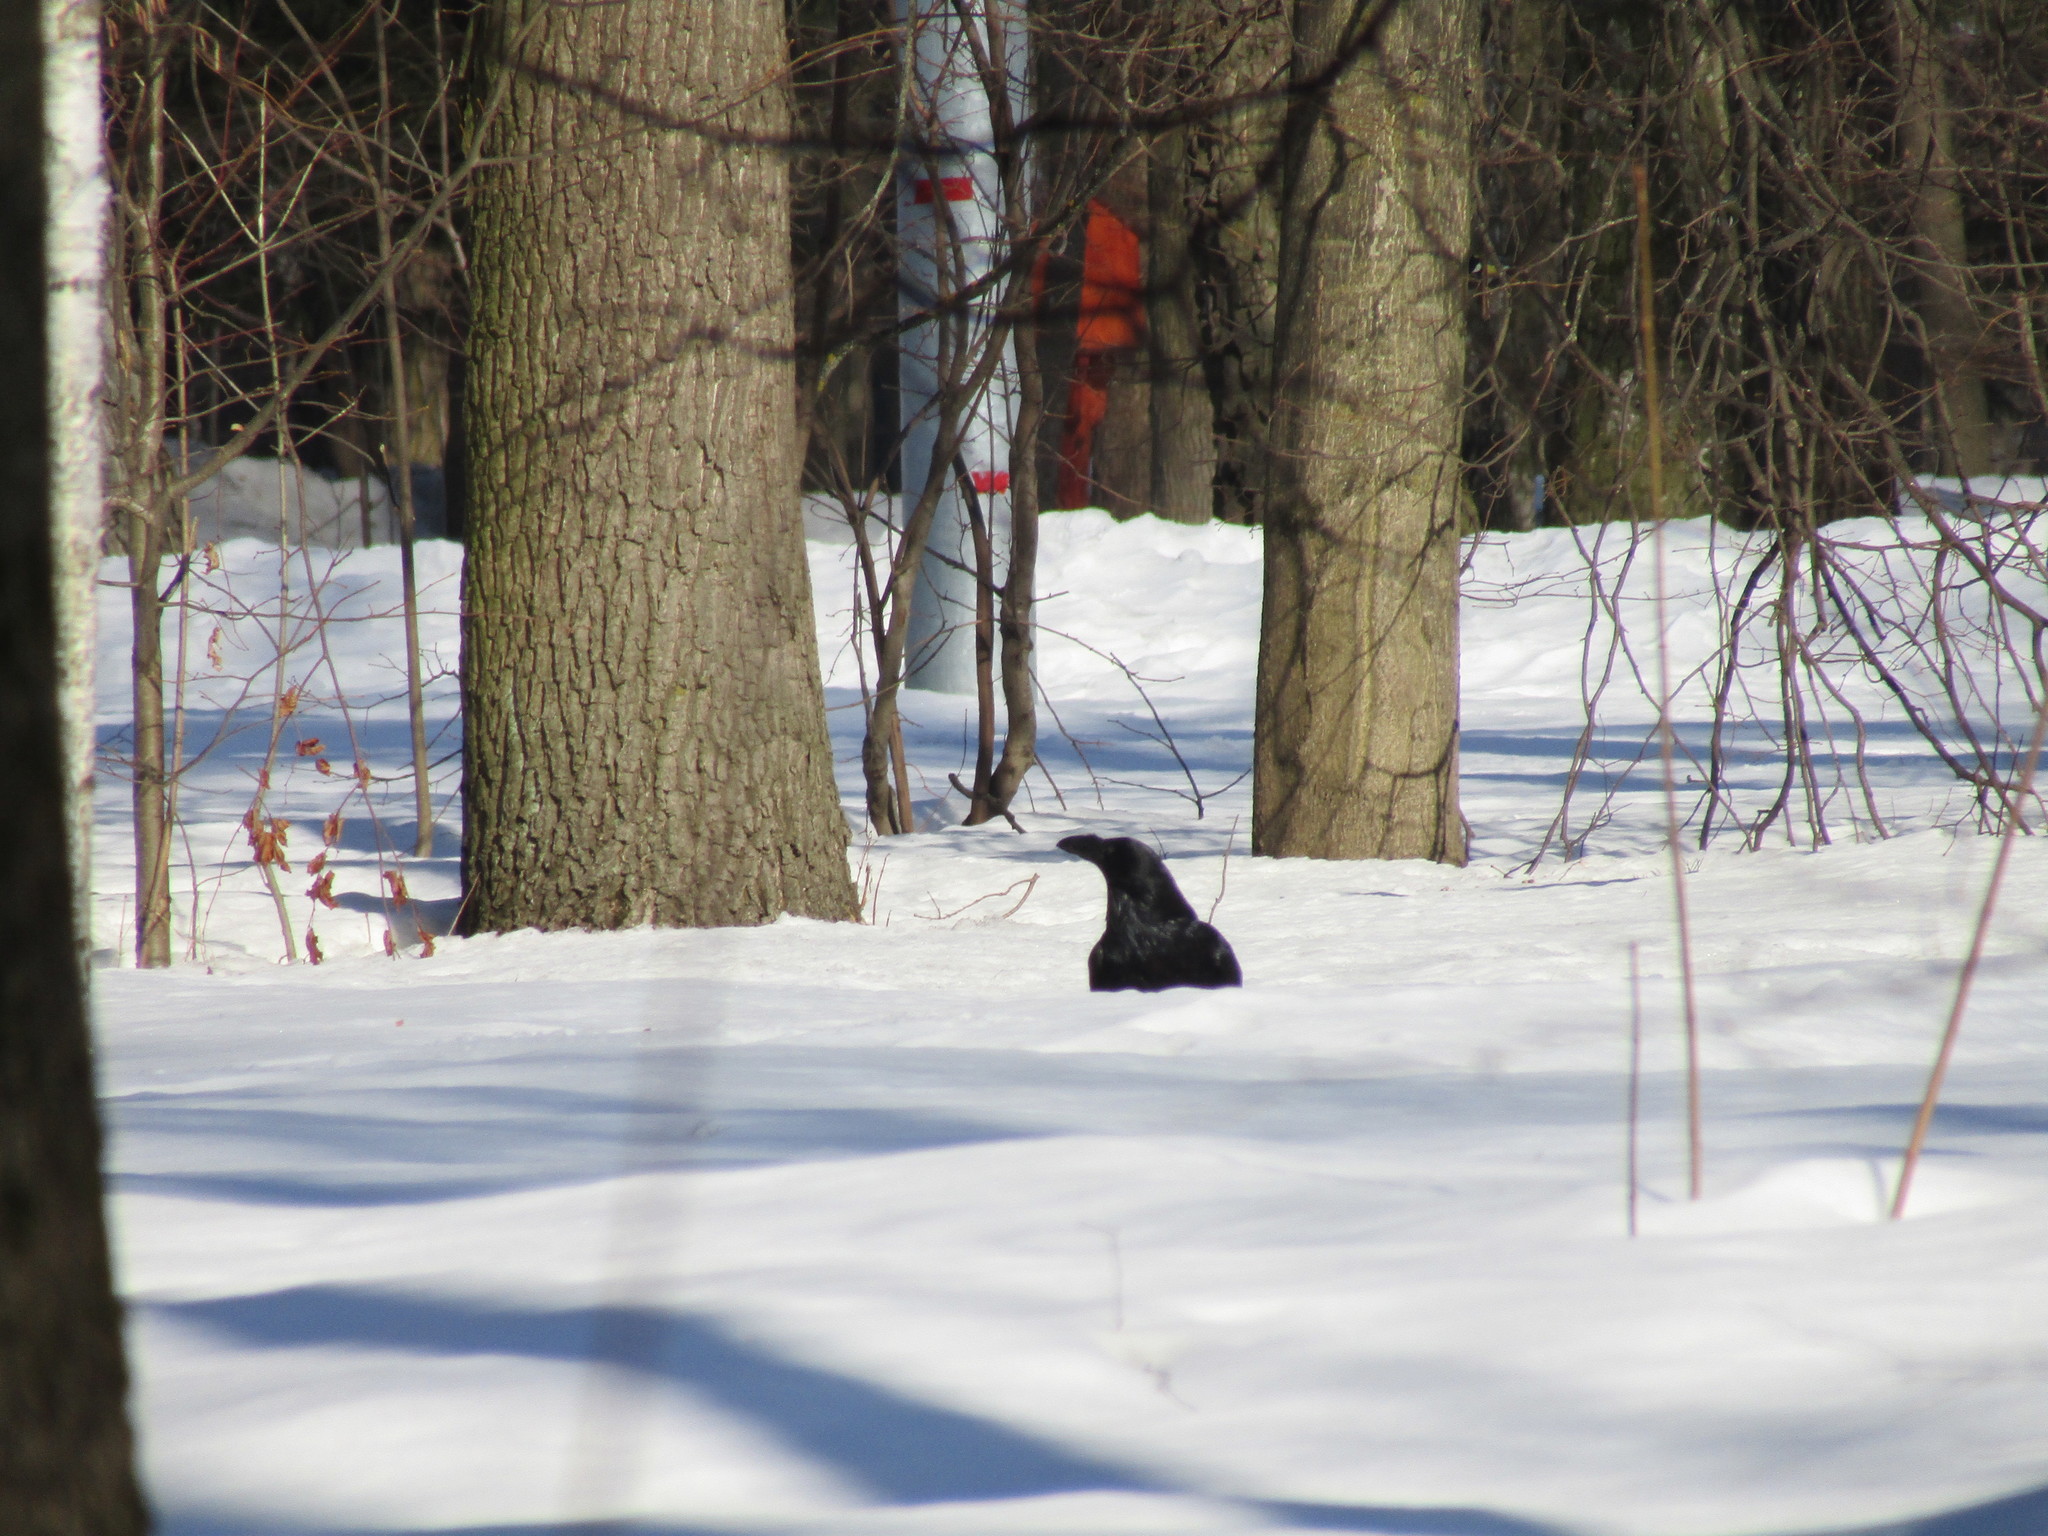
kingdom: Animalia
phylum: Chordata
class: Aves
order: Passeriformes
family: Corvidae
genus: Corvus
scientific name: Corvus corax
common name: Common raven
